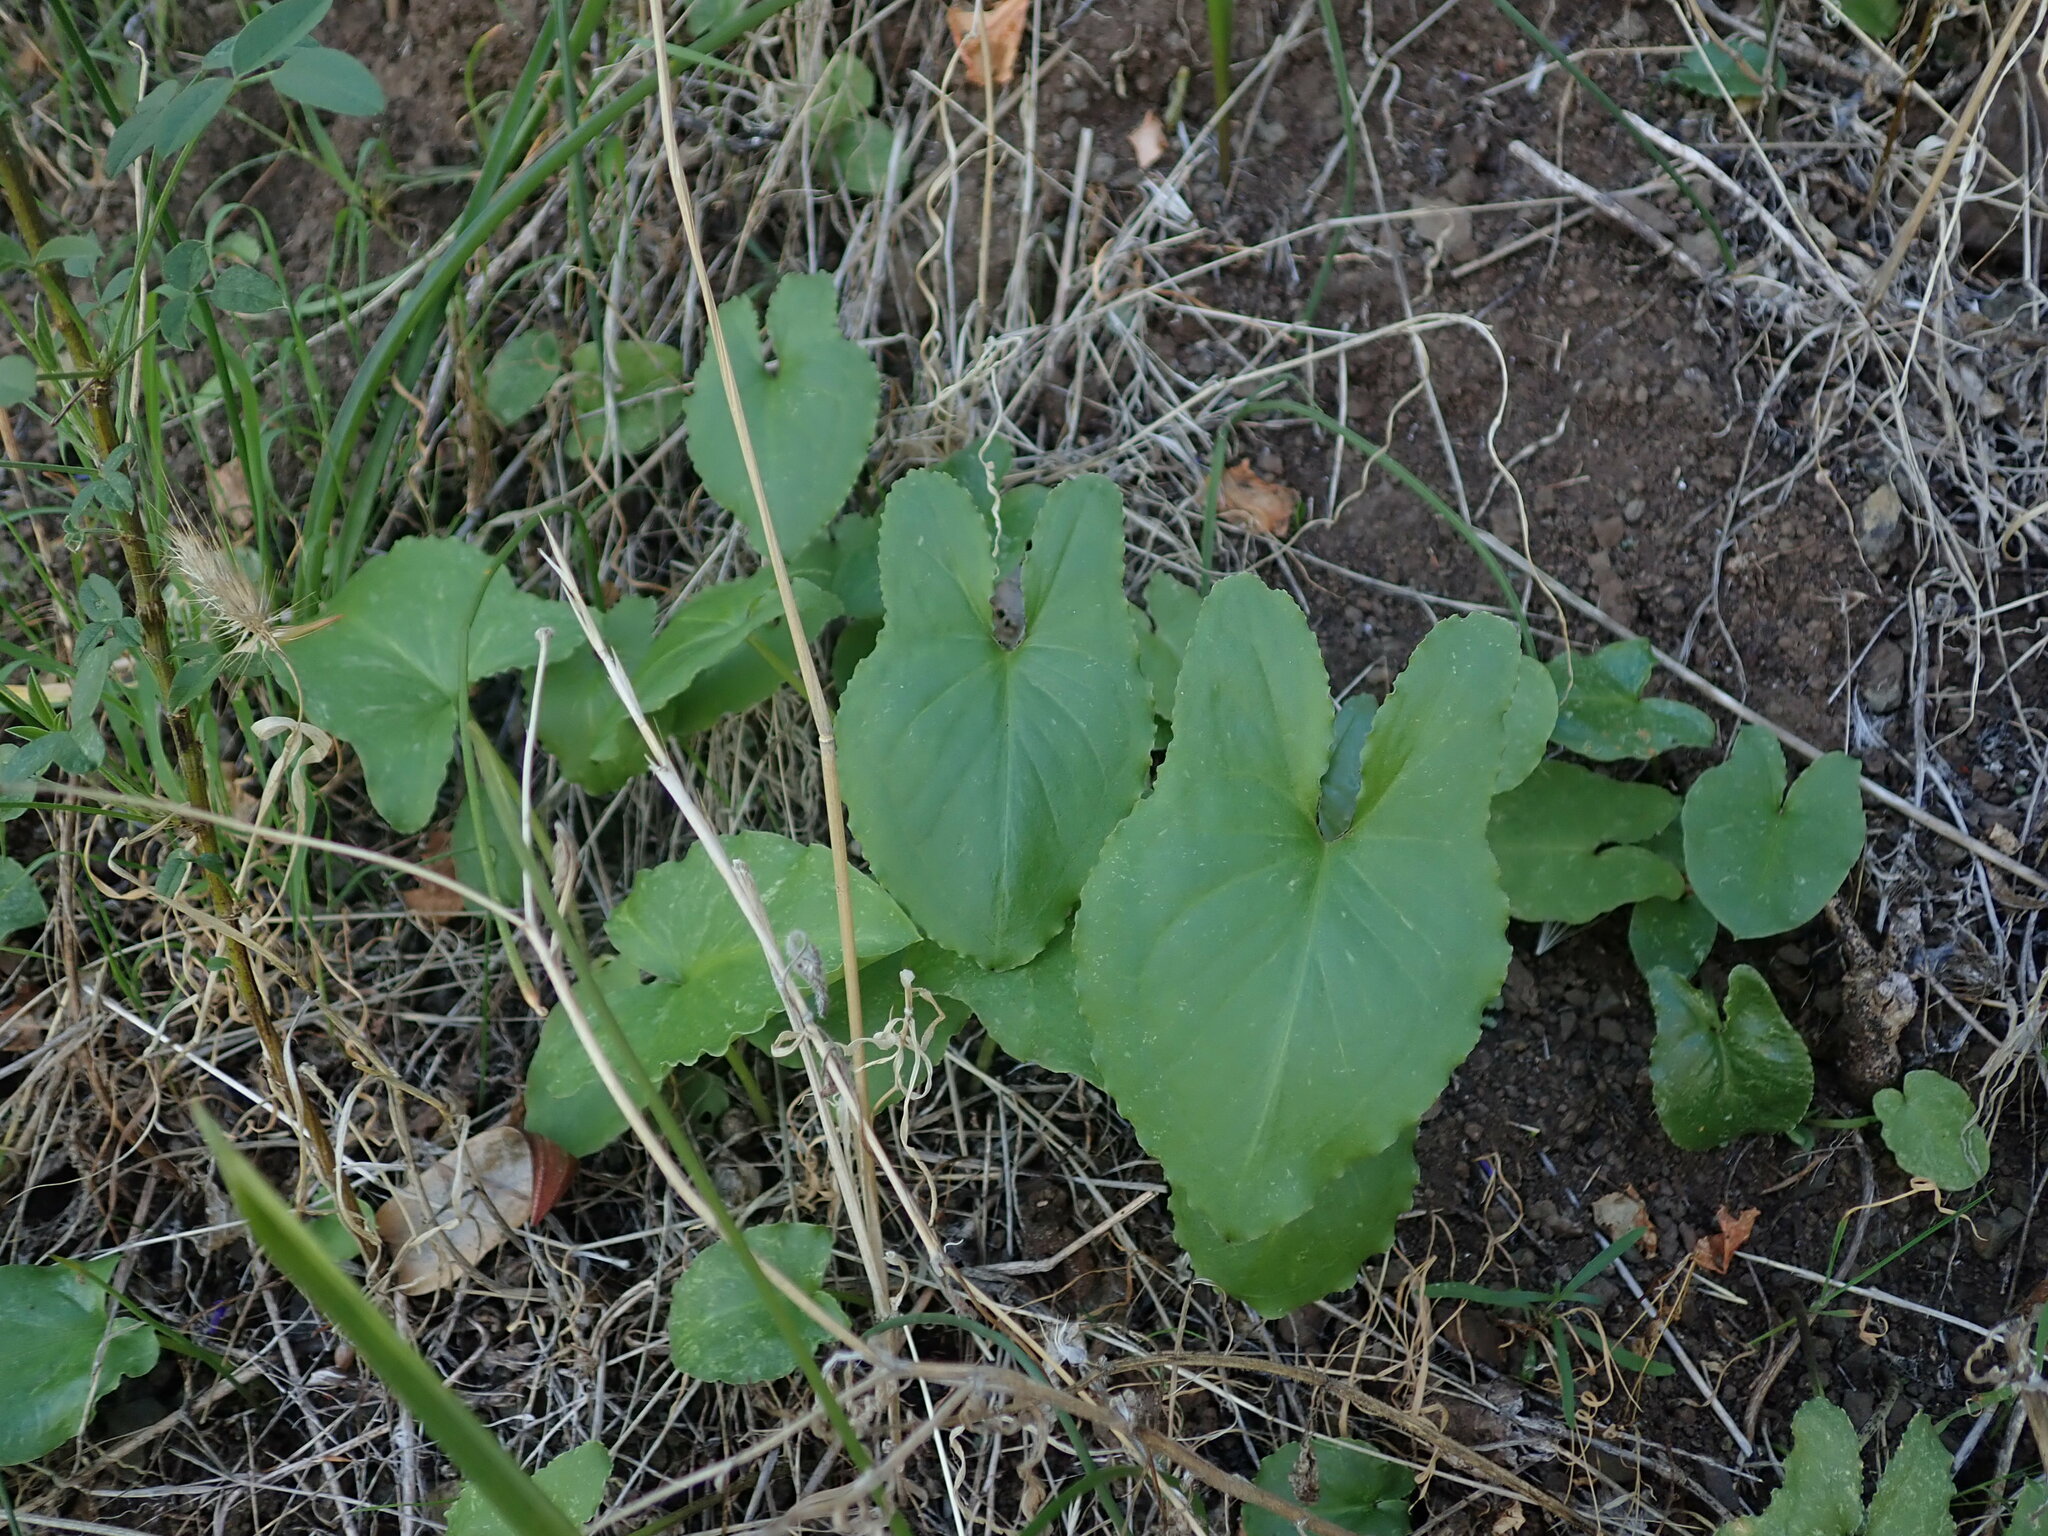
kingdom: Plantae
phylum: Tracheophyta
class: Liliopsida
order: Alismatales
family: Araceae
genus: Arisarum
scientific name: Arisarum simorrhinum
